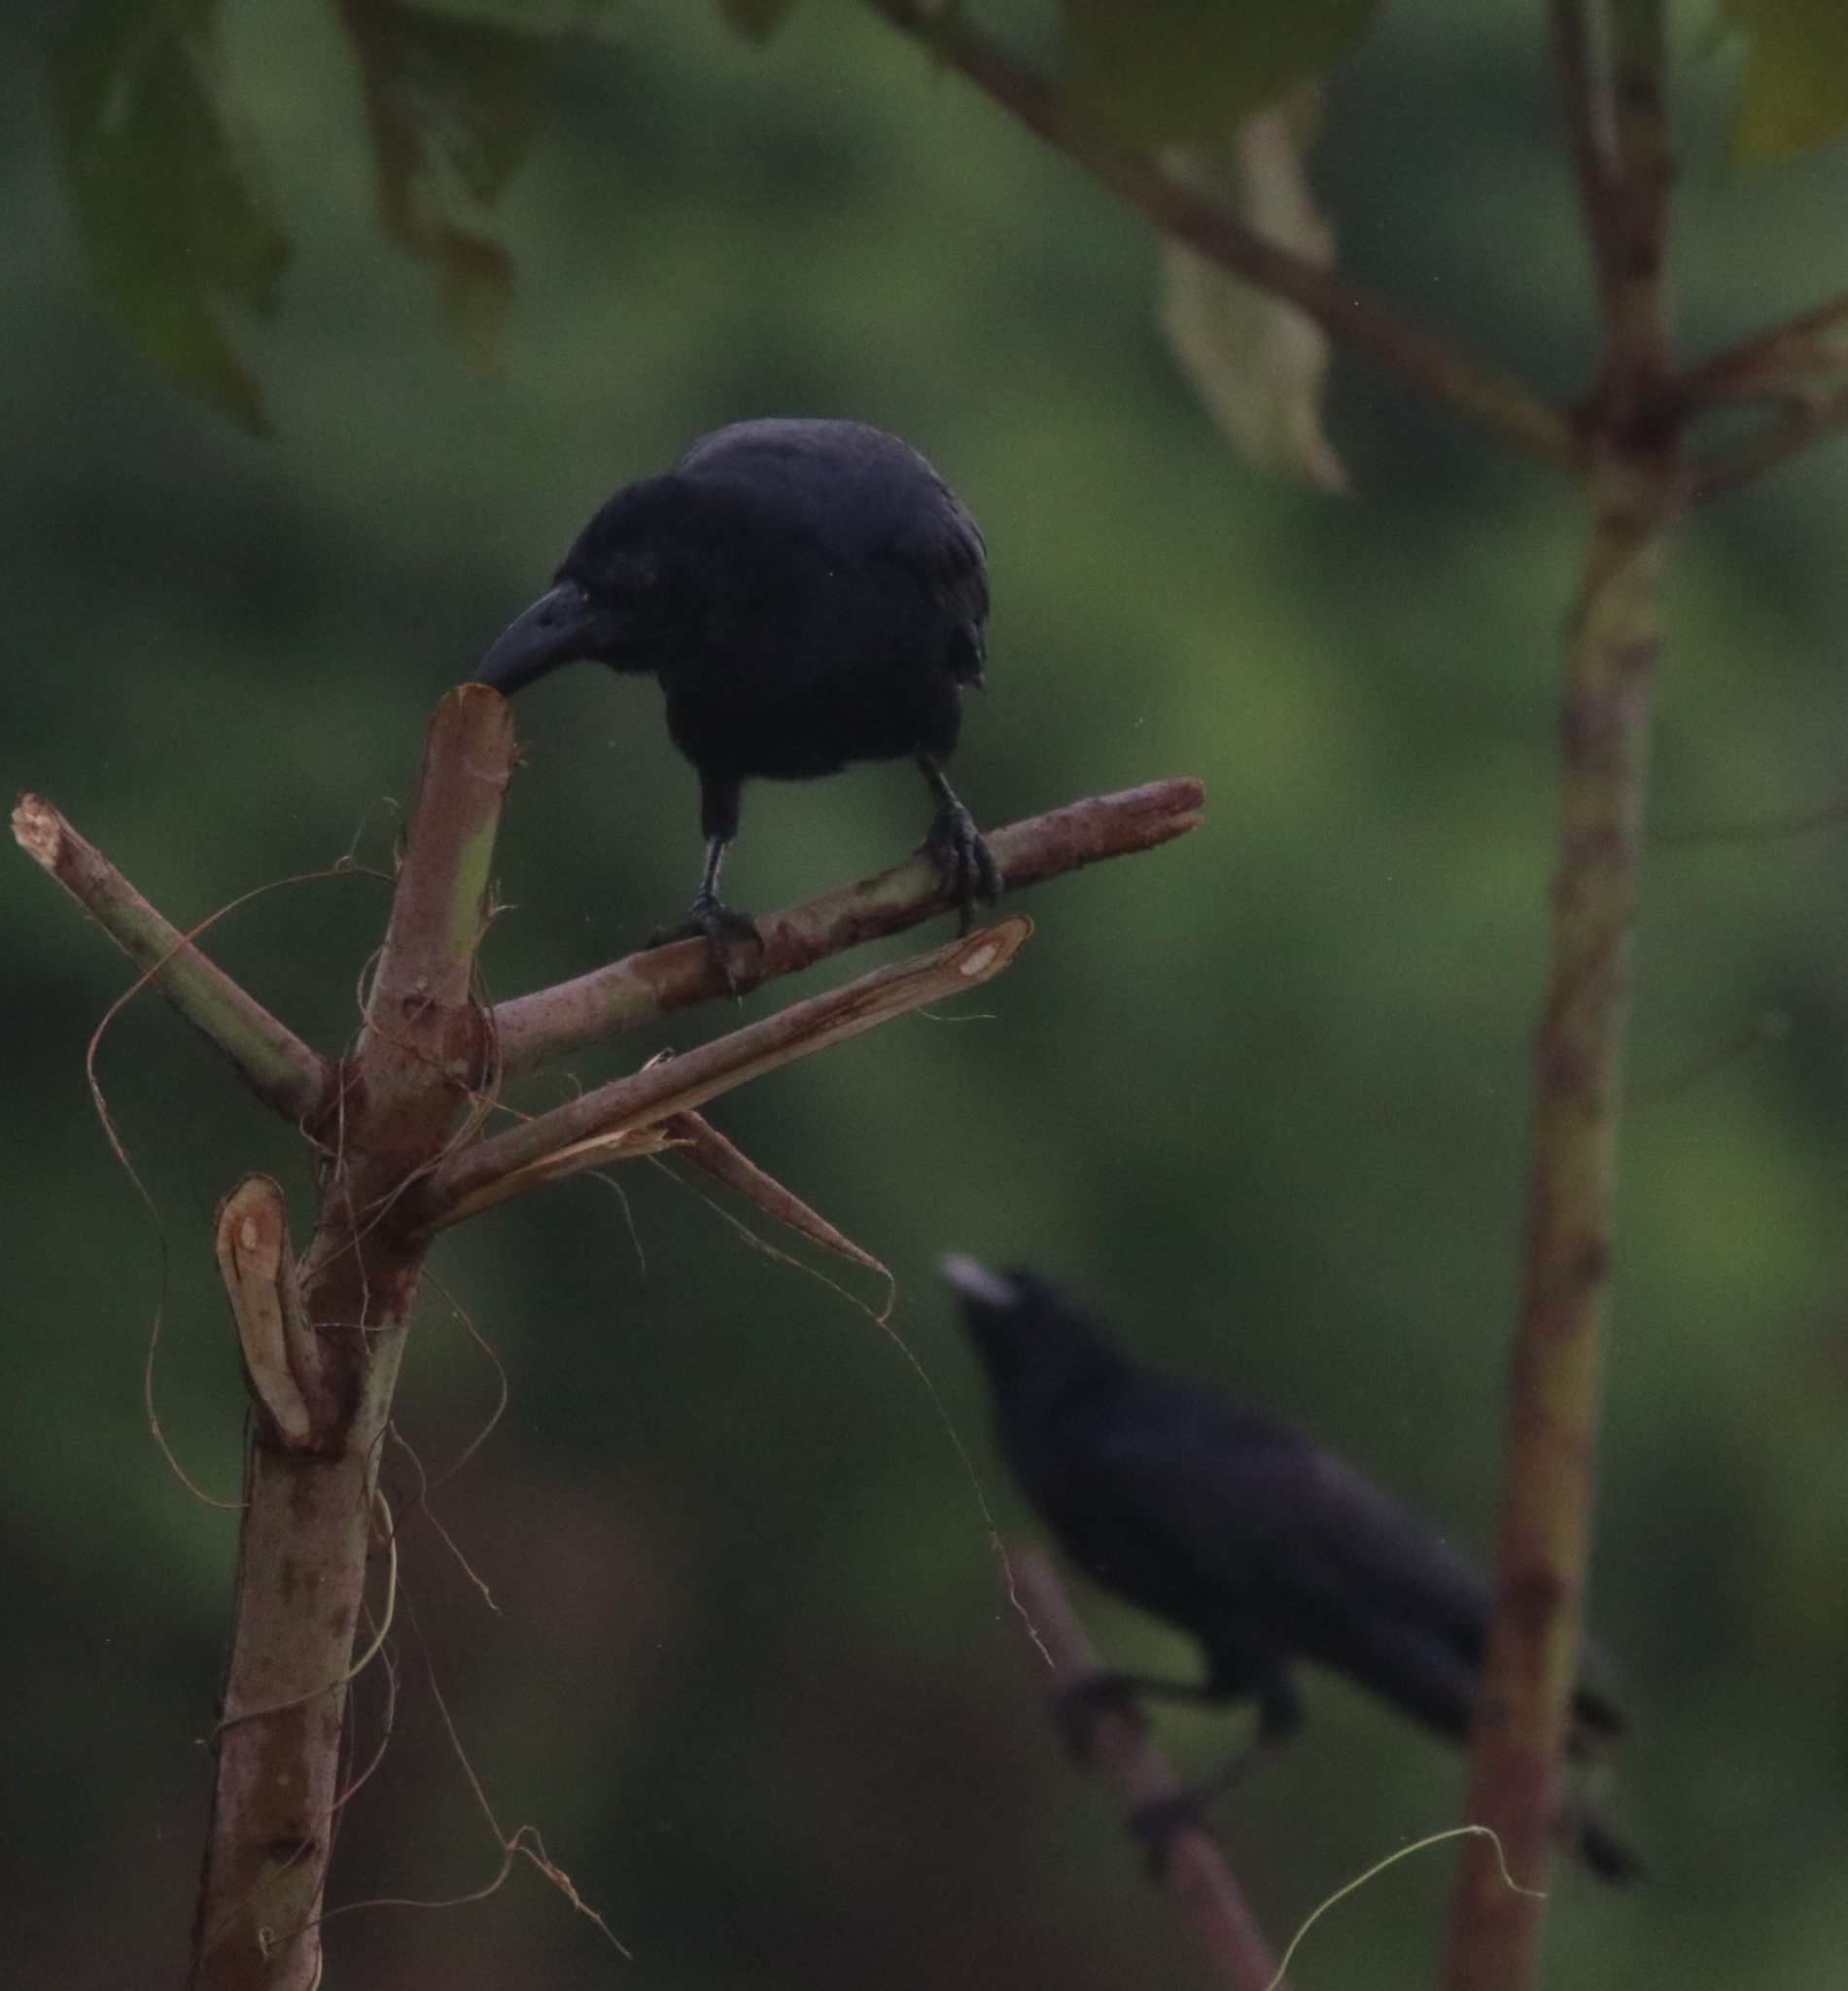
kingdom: Animalia
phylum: Chordata
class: Aves
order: Passeriformes
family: Corvidae
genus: Corvus
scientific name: Corvus macrorhynchos
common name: Large-billed crow
